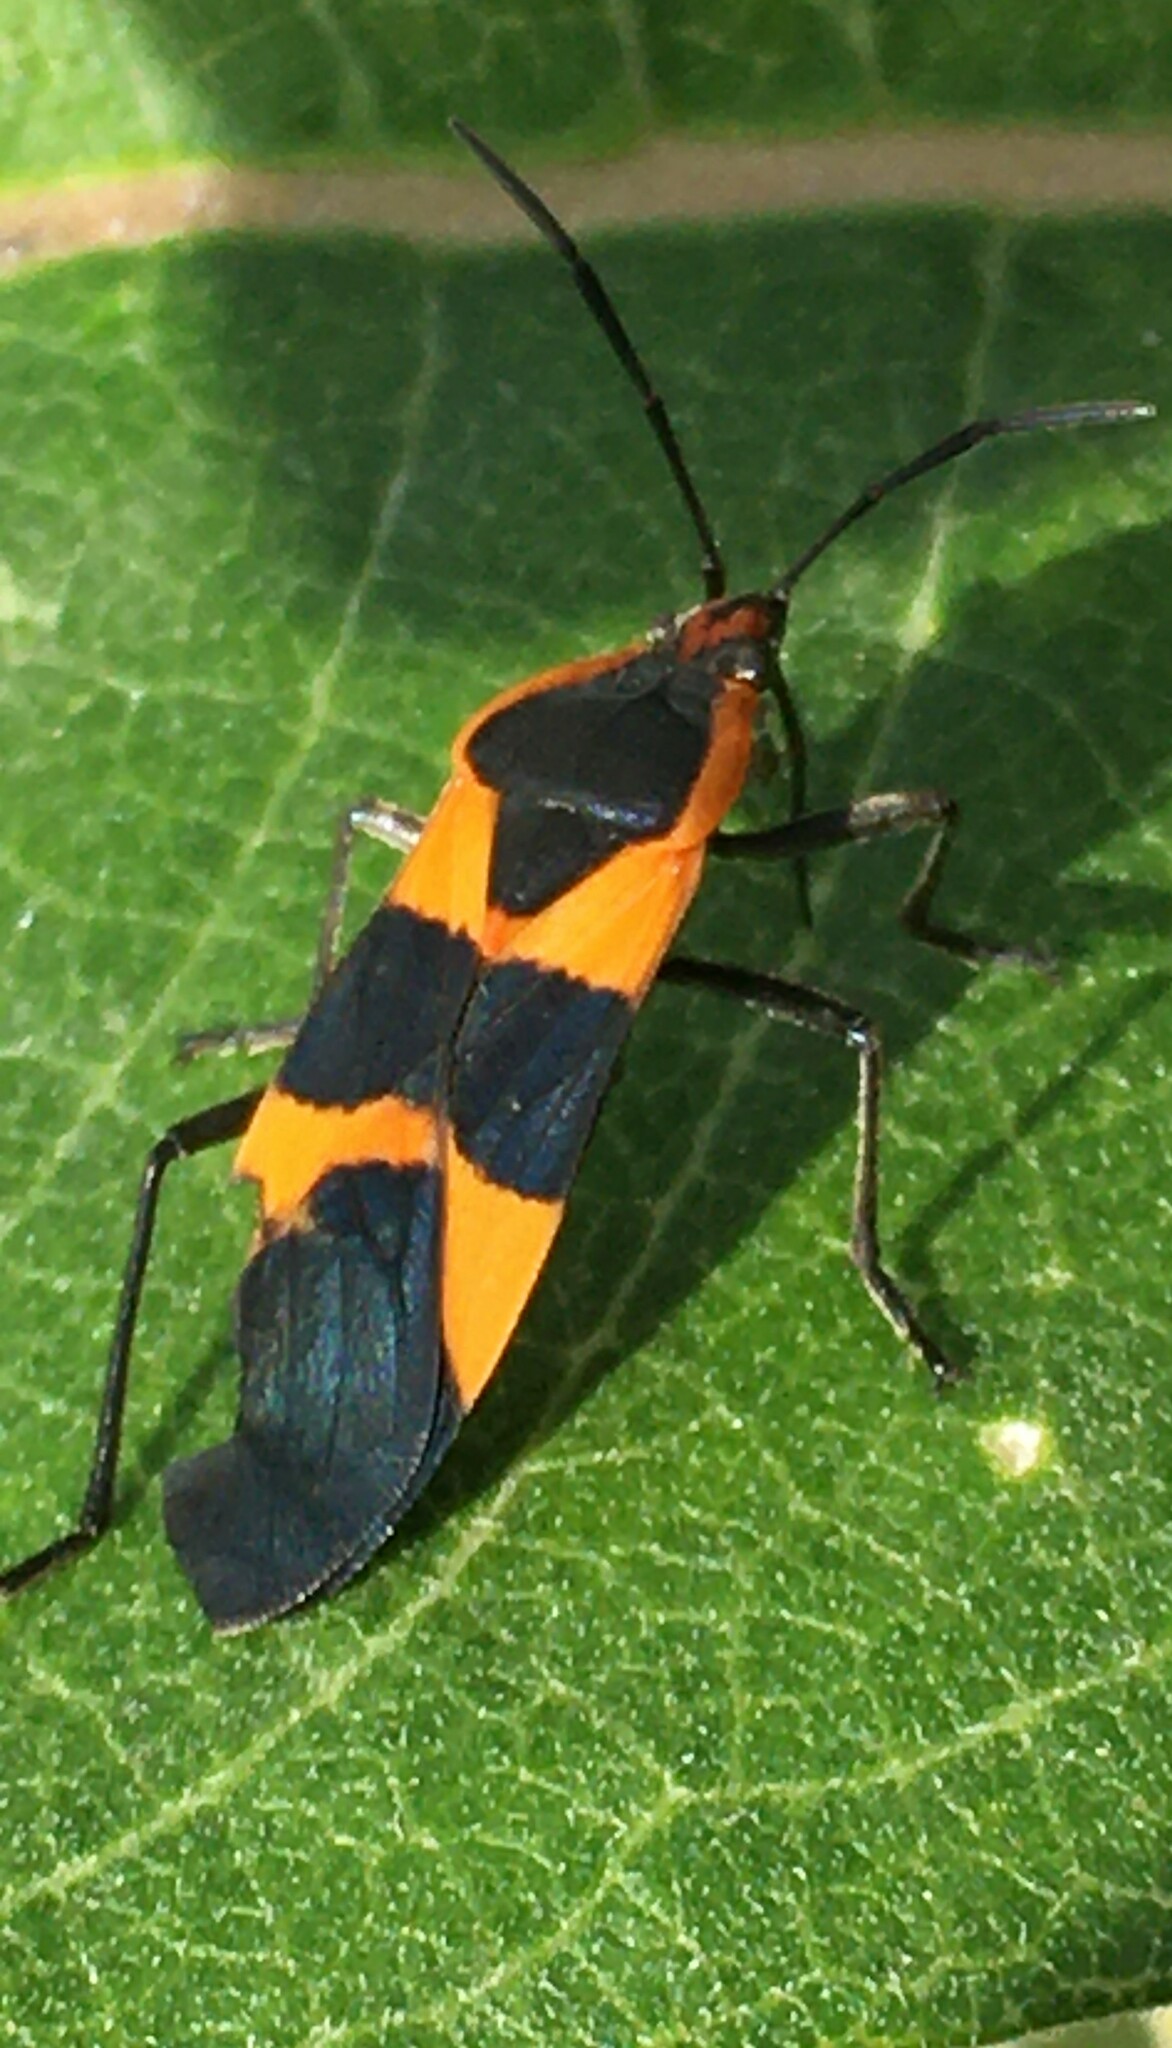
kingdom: Animalia
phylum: Arthropoda
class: Insecta
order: Hemiptera
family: Lygaeidae
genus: Oncopeltus
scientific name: Oncopeltus fasciatus
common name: Large milkweed bug
